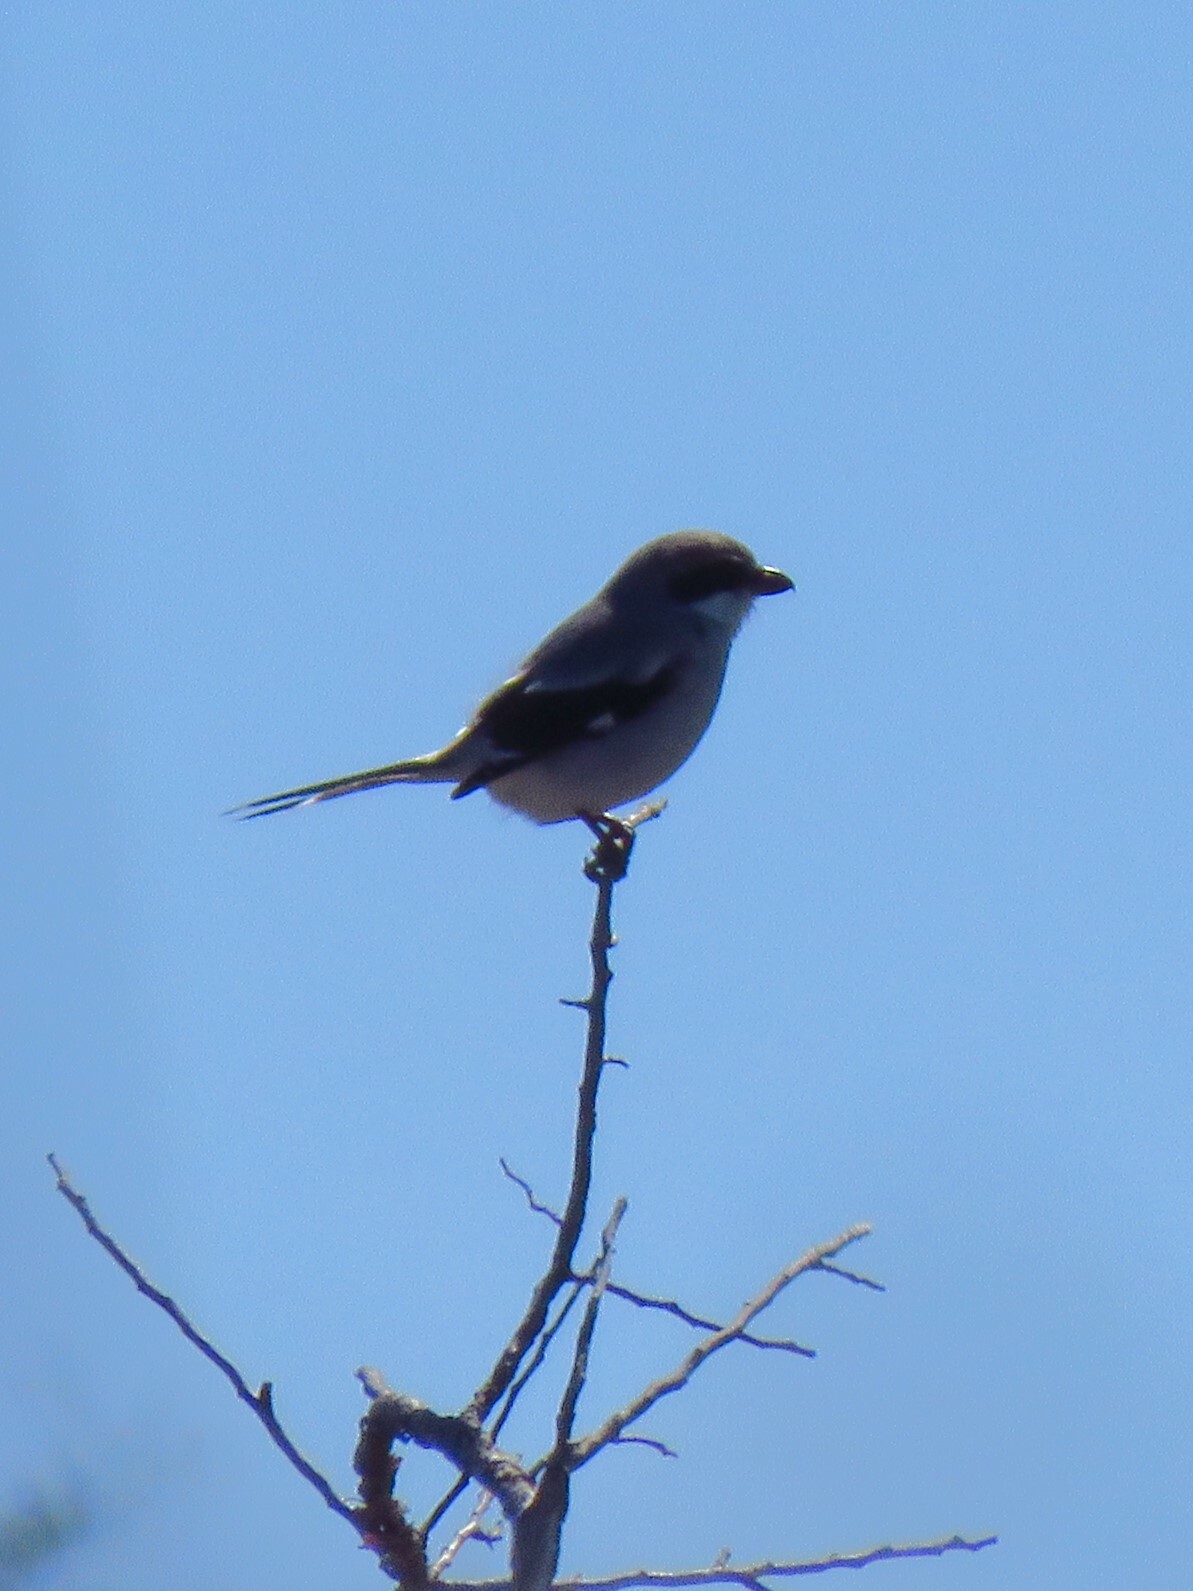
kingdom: Animalia
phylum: Chordata
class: Aves
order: Passeriformes
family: Laniidae
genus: Lanius
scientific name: Lanius ludovicianus
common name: Loggerhead shrike
